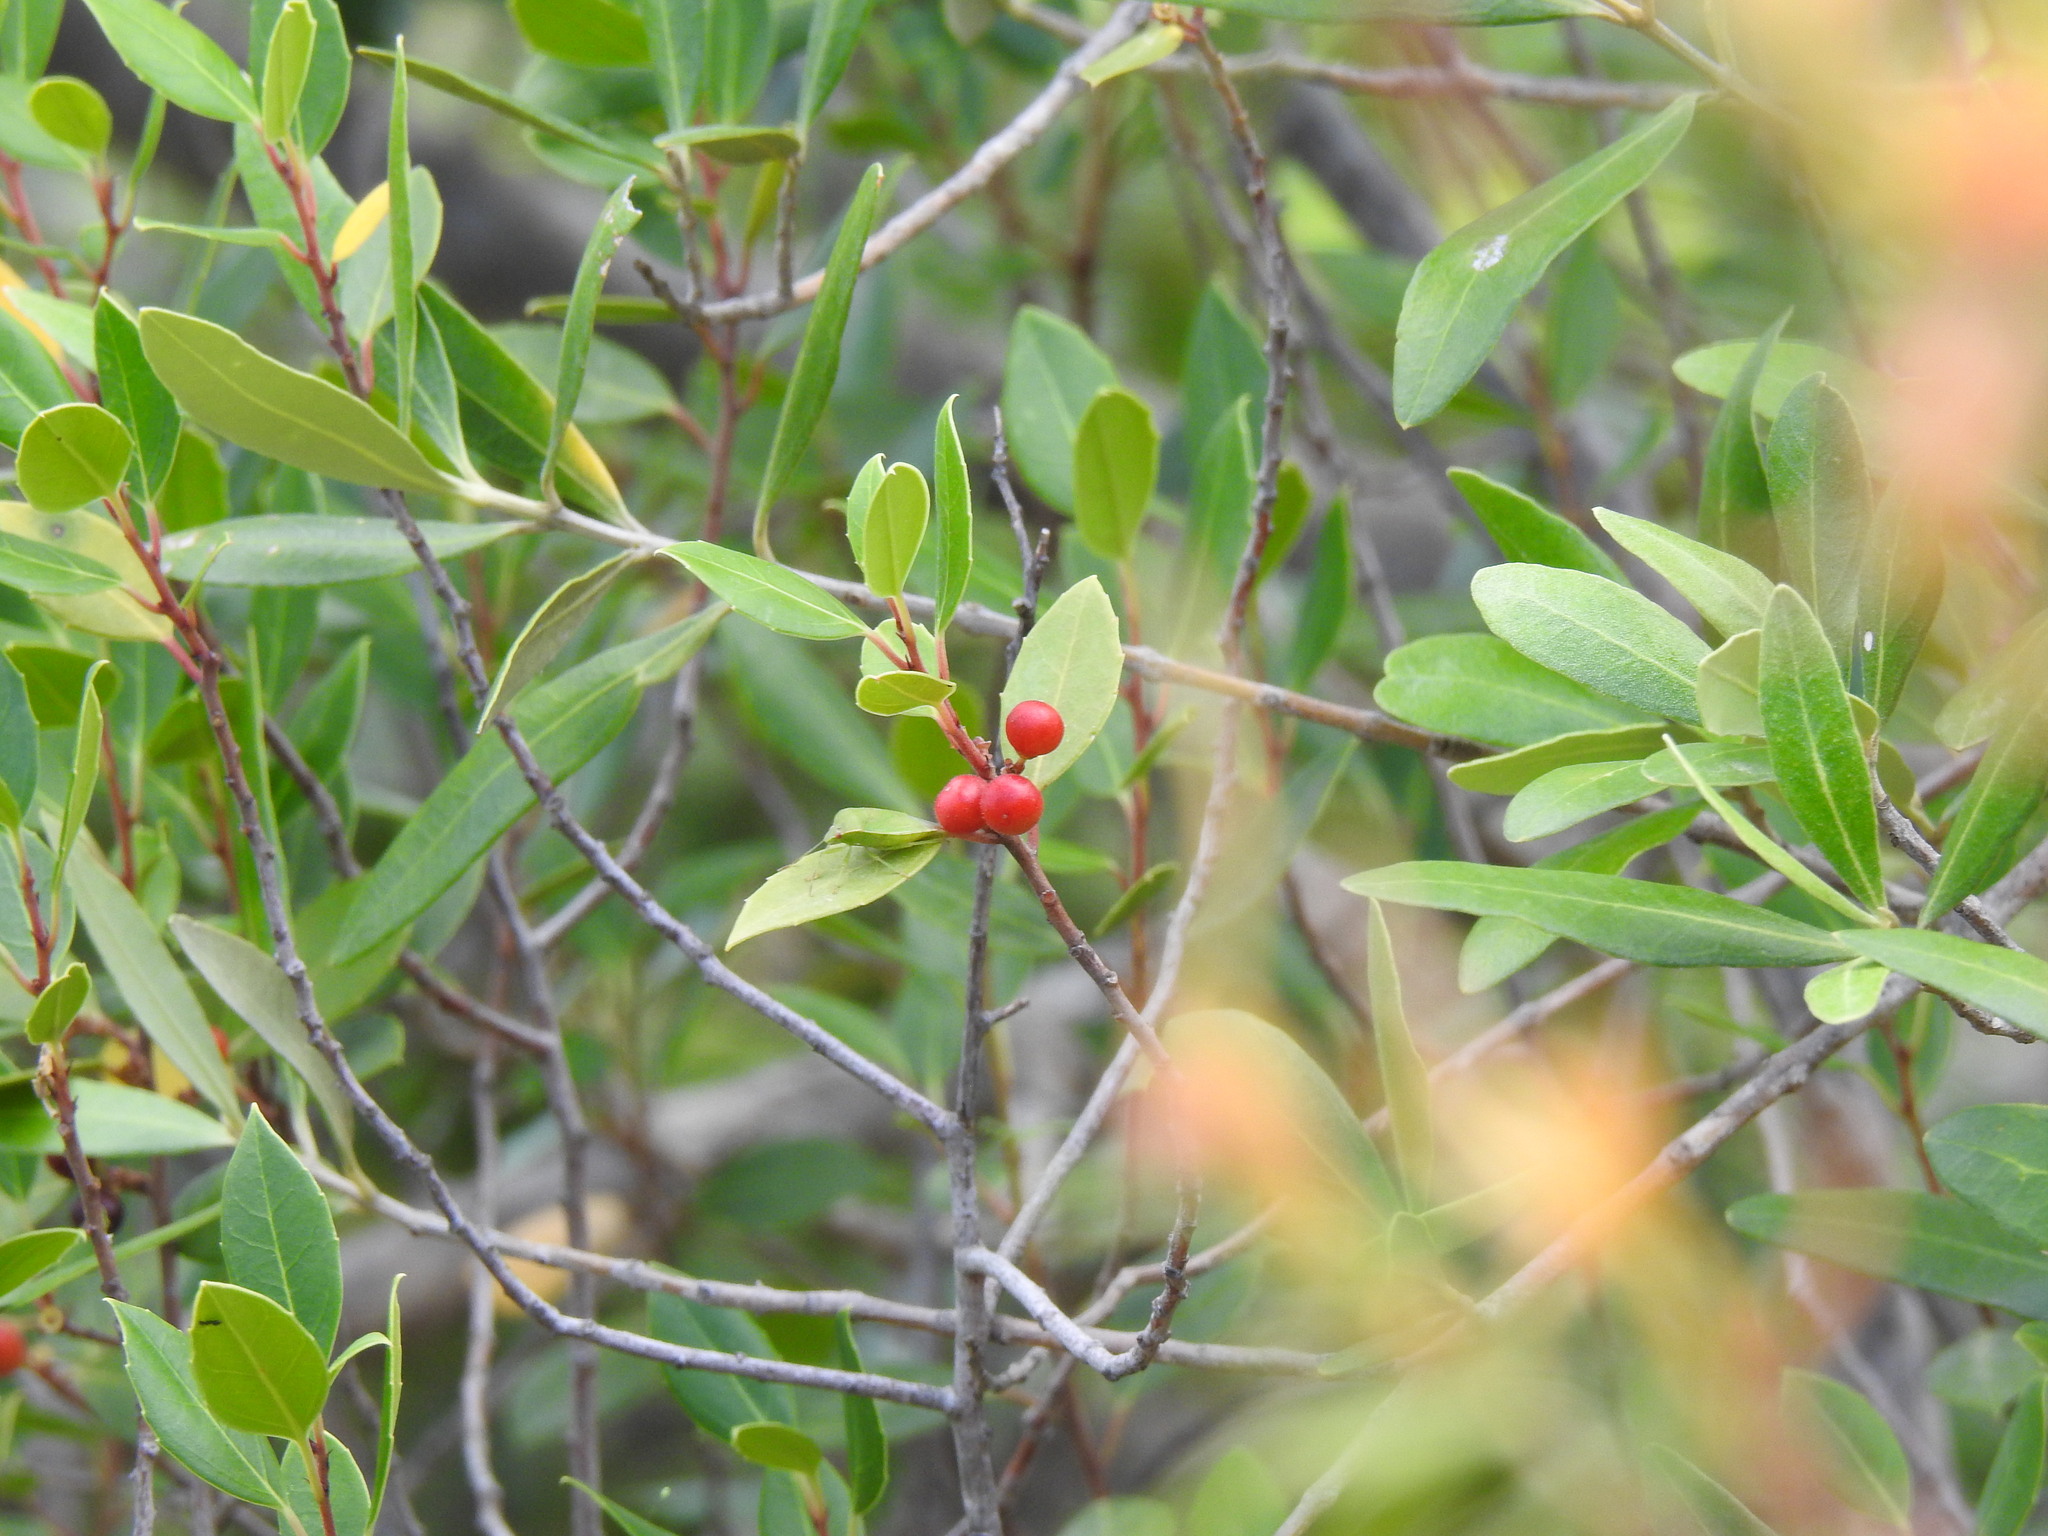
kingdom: Plantae
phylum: Tracheophyta
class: Magnoliopsida
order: Rosales
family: Rhamnaceae
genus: Rhamnus
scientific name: Rhamnus alaternus
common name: Mediterranean buckthorn
